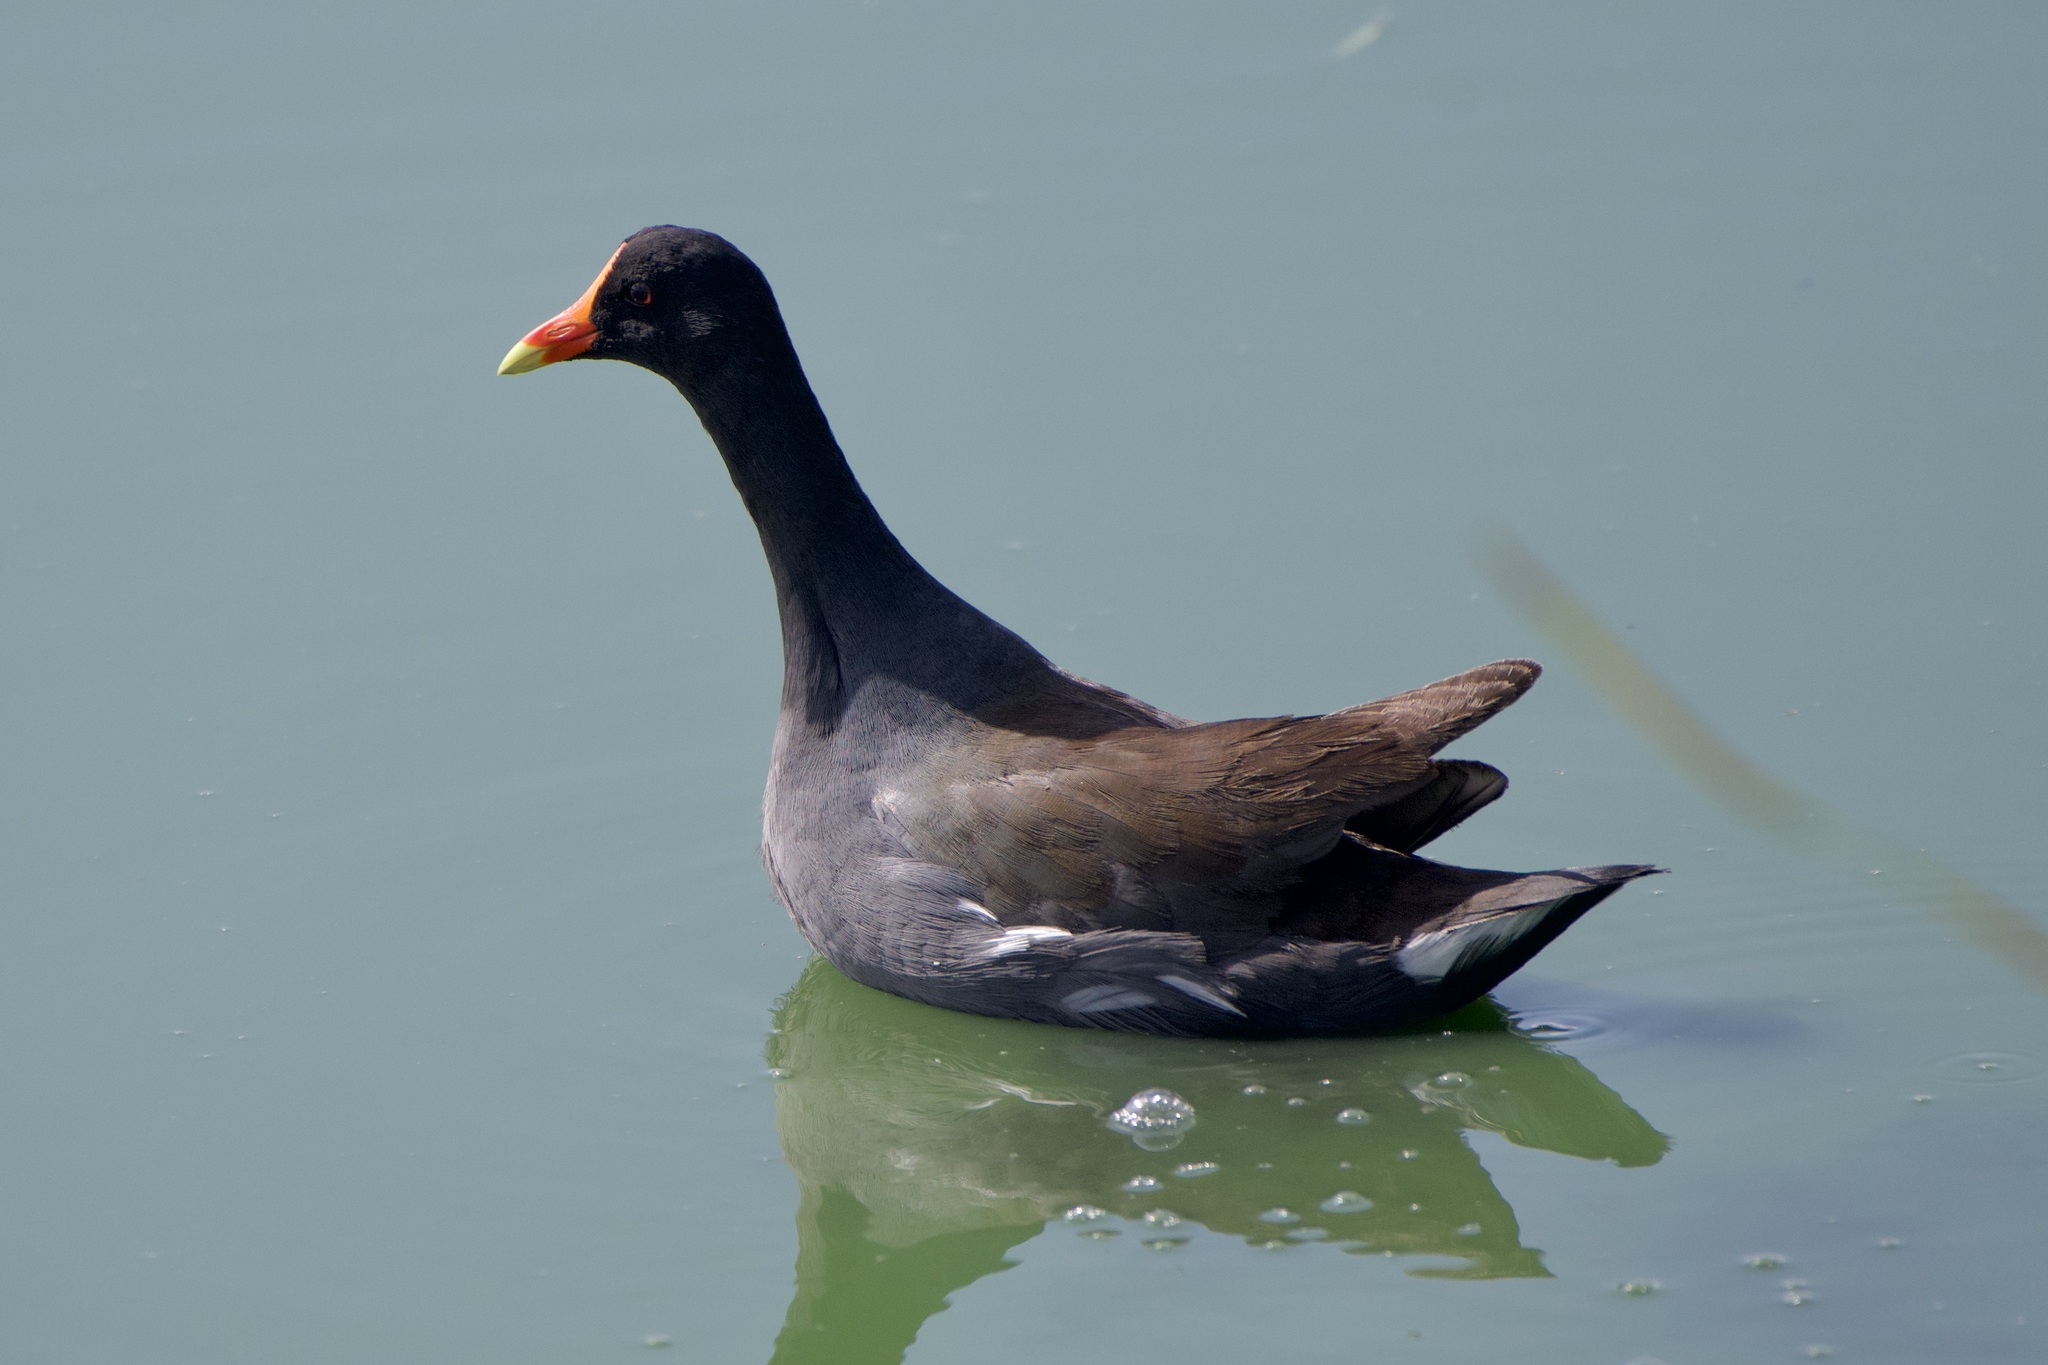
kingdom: Animalia
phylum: Chordata
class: Aves
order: Gruiformes
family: Rallidae
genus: Gallinula
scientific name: Gallinula chloropus
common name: Common moorhen
